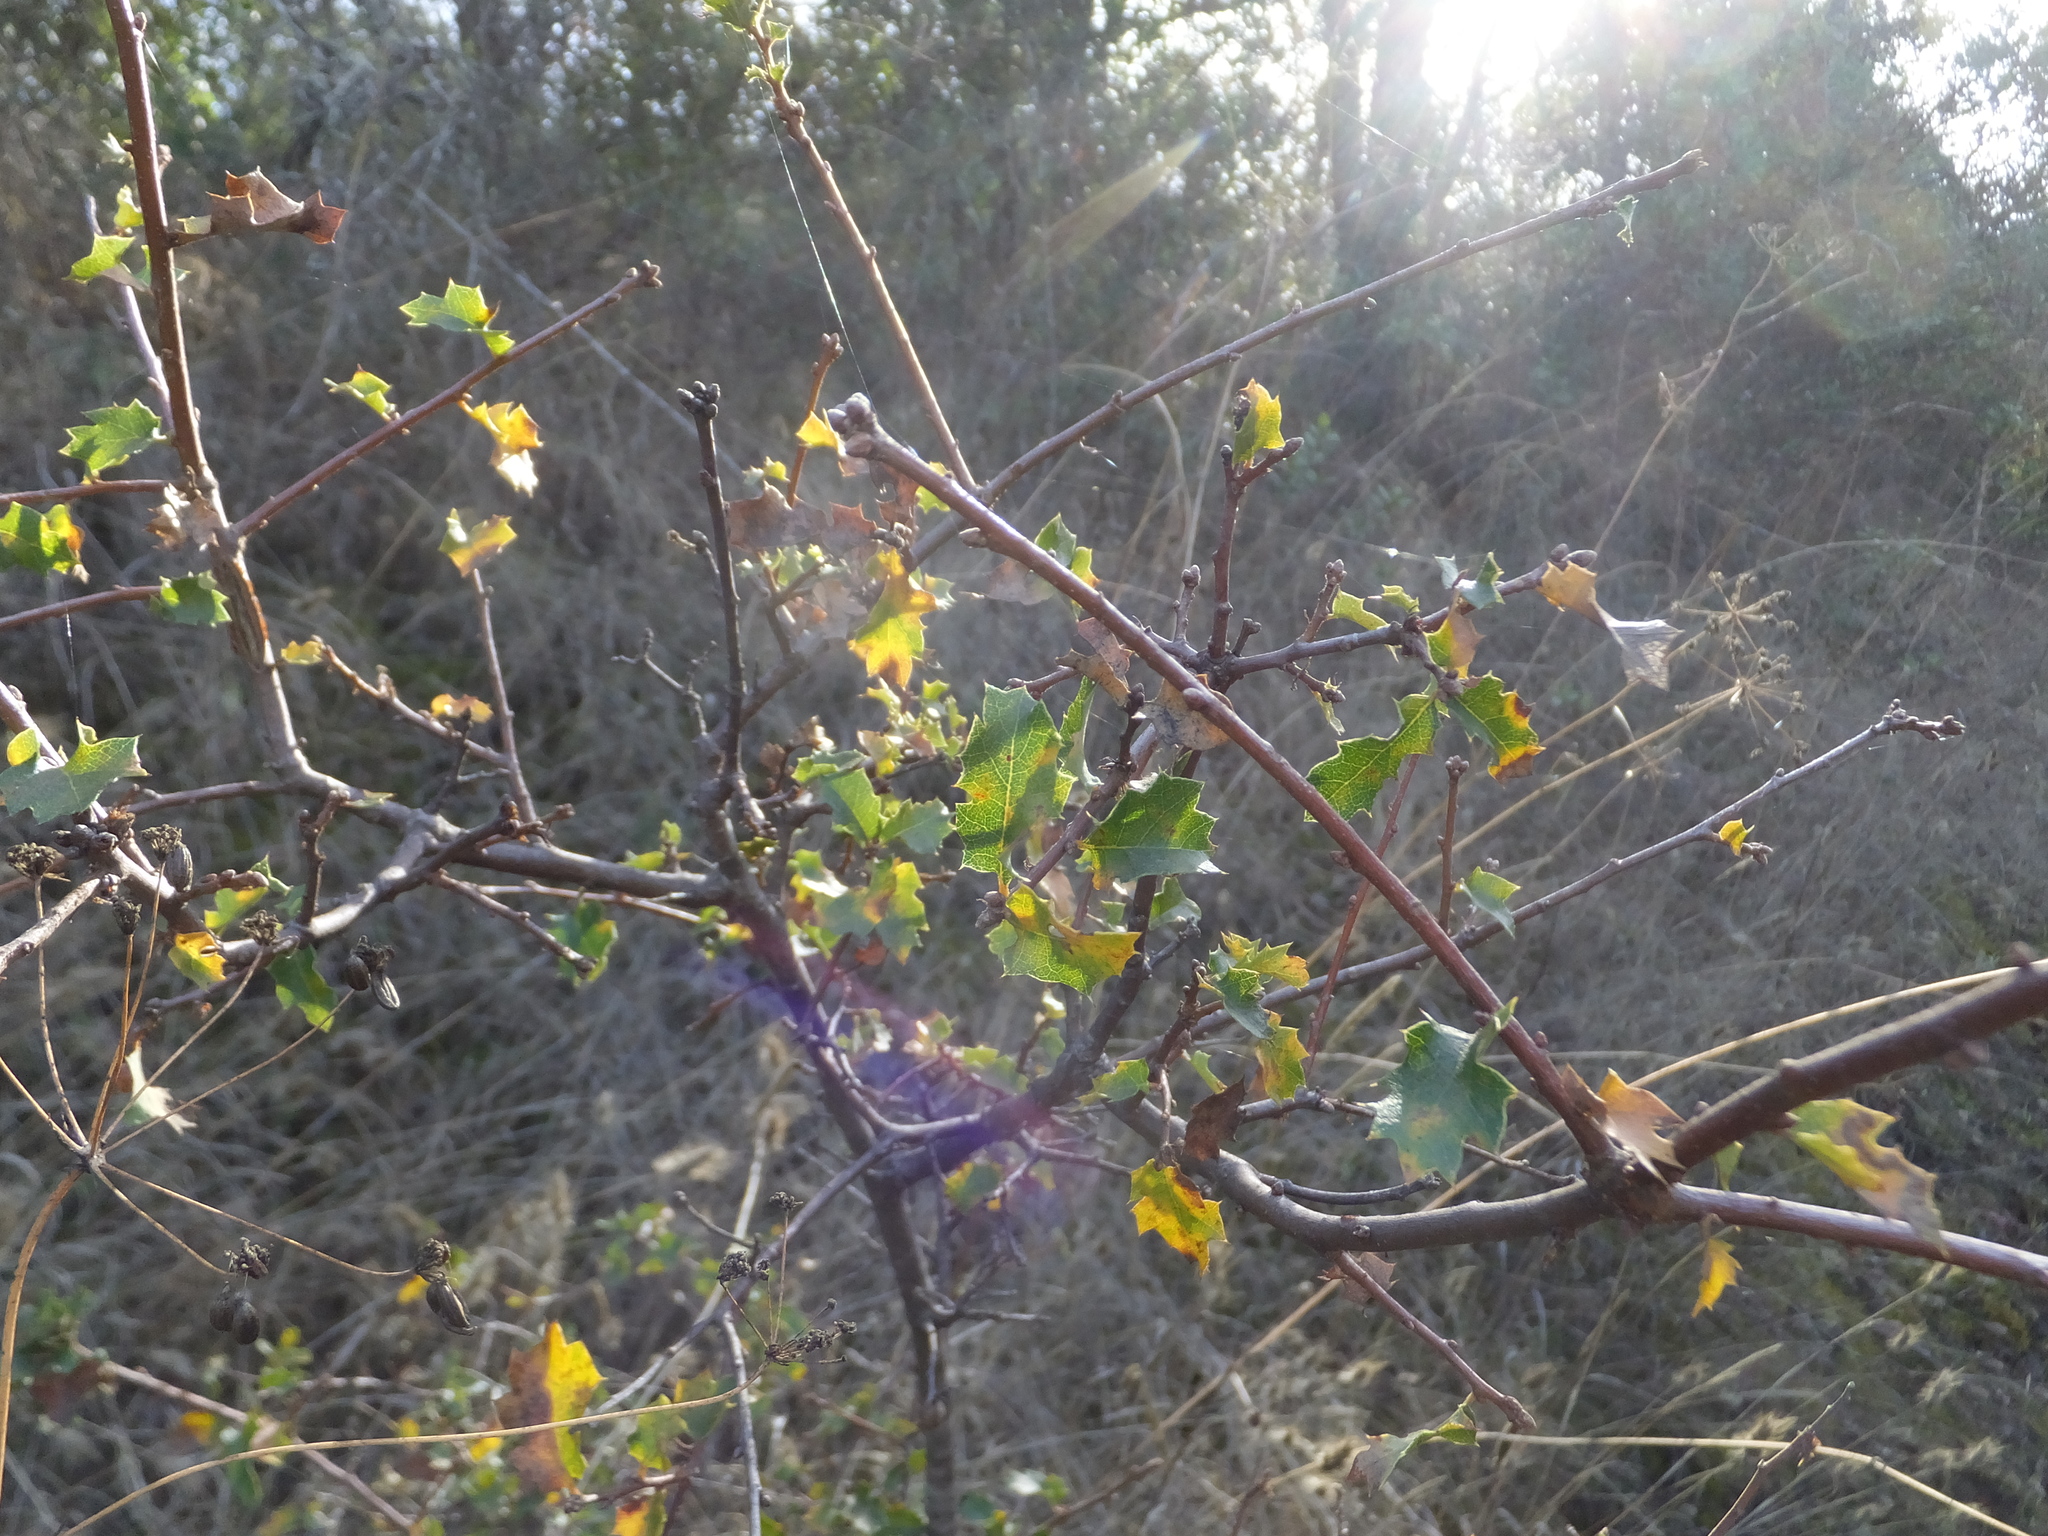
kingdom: Plantae
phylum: Tracheophyta
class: Magnoliopsida
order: Fagales
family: Fagaceae
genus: Quercus
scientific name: Quercus berberidifolia
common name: California scrub oak
